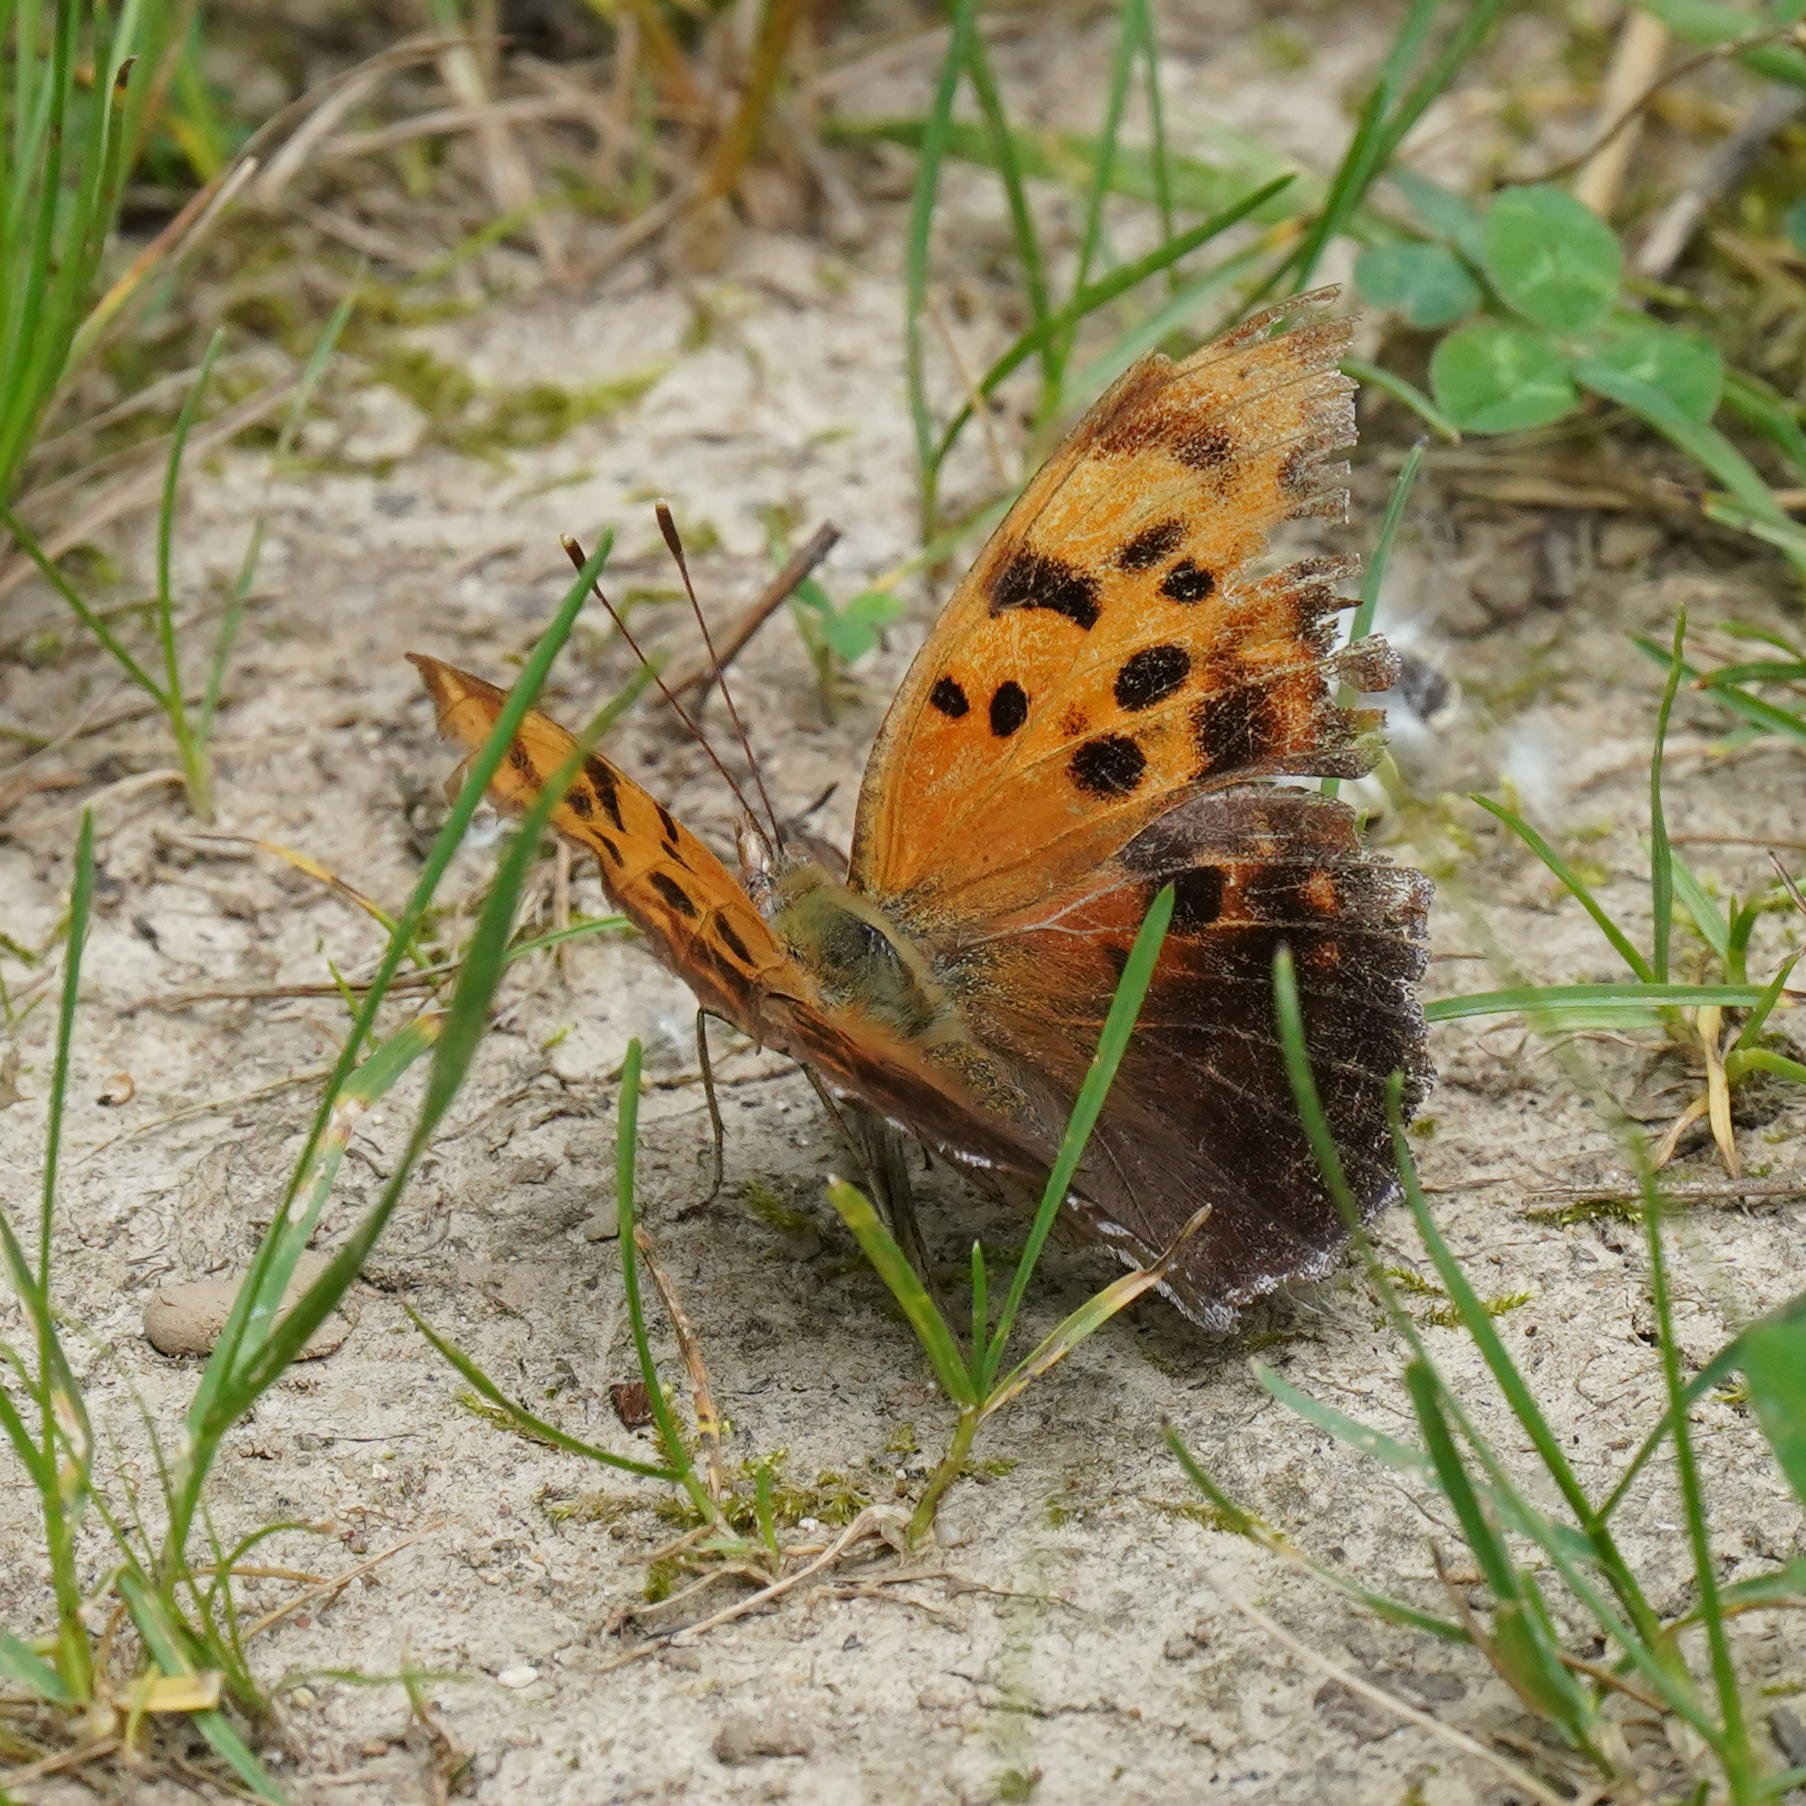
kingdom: Animalia
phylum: Arthropoda
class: Insecta
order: Lepidoptera
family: Nymphalidae
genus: Polygonia
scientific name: Polygonia interrogationis
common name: Question mark
